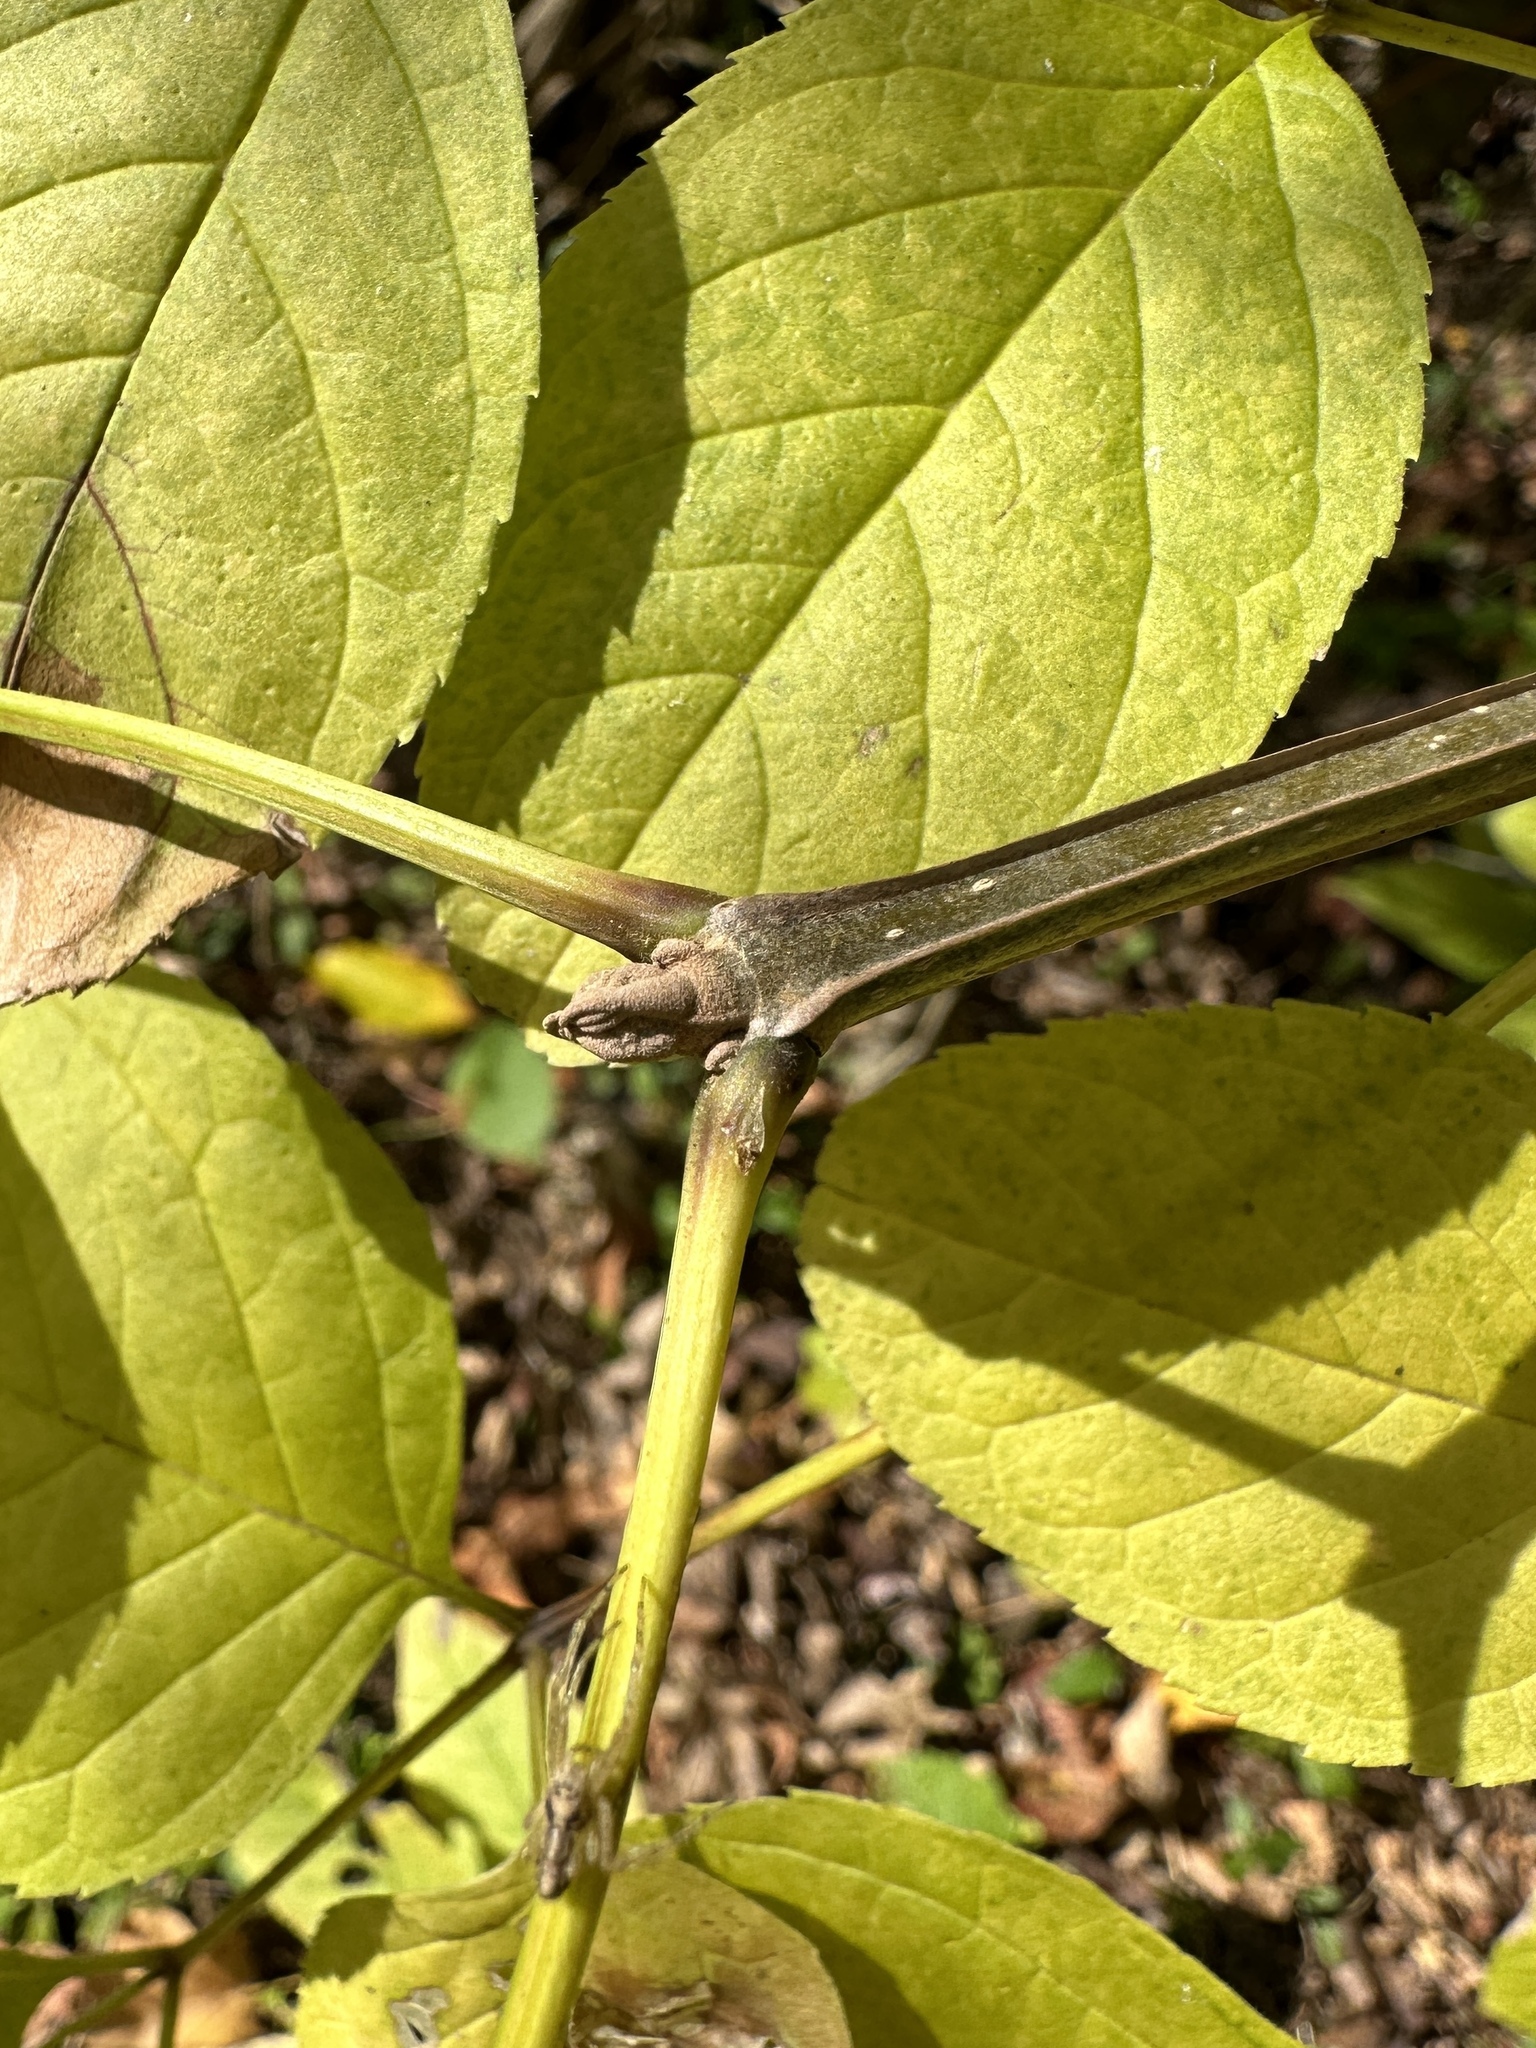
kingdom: Plantae
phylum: Tracheophyta
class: Magnoliopsida
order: Lamiales
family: Oleaceae
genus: Fraxinus
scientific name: Fraxinus quadrangulata
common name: Blue ash
